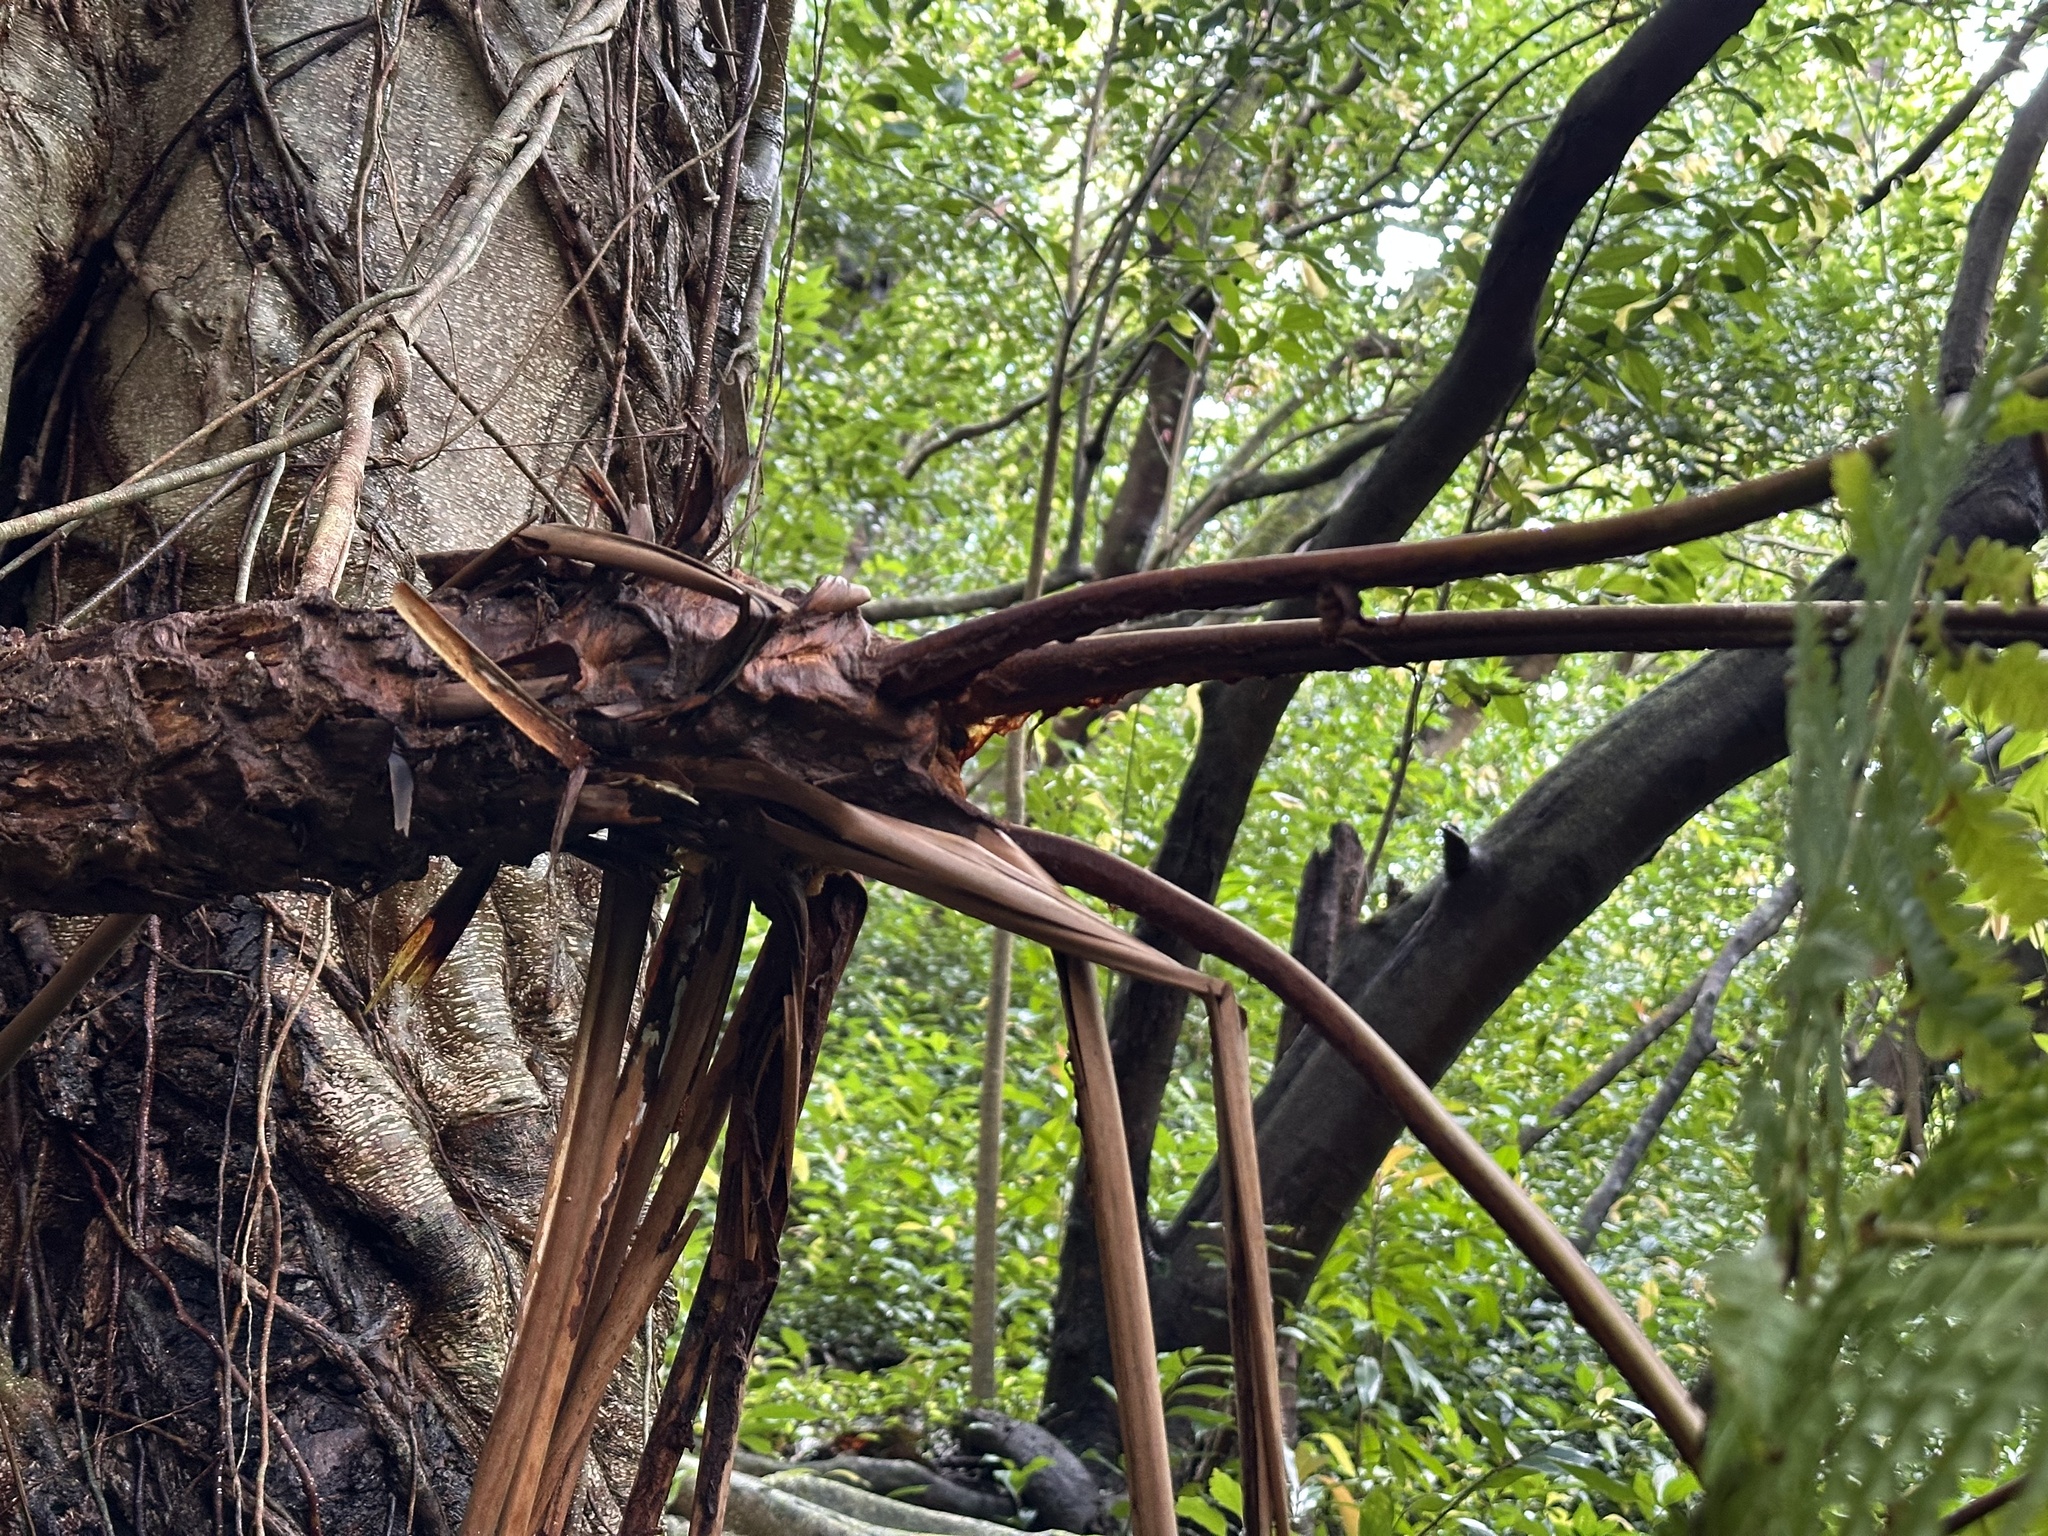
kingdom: Plantae
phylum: Tracheophyta
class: Polypodiopsida
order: Cyatheales
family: Cibotiaceae
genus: Cibotium
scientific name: Cibotium chamissoi
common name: Hawaiian tree fern
